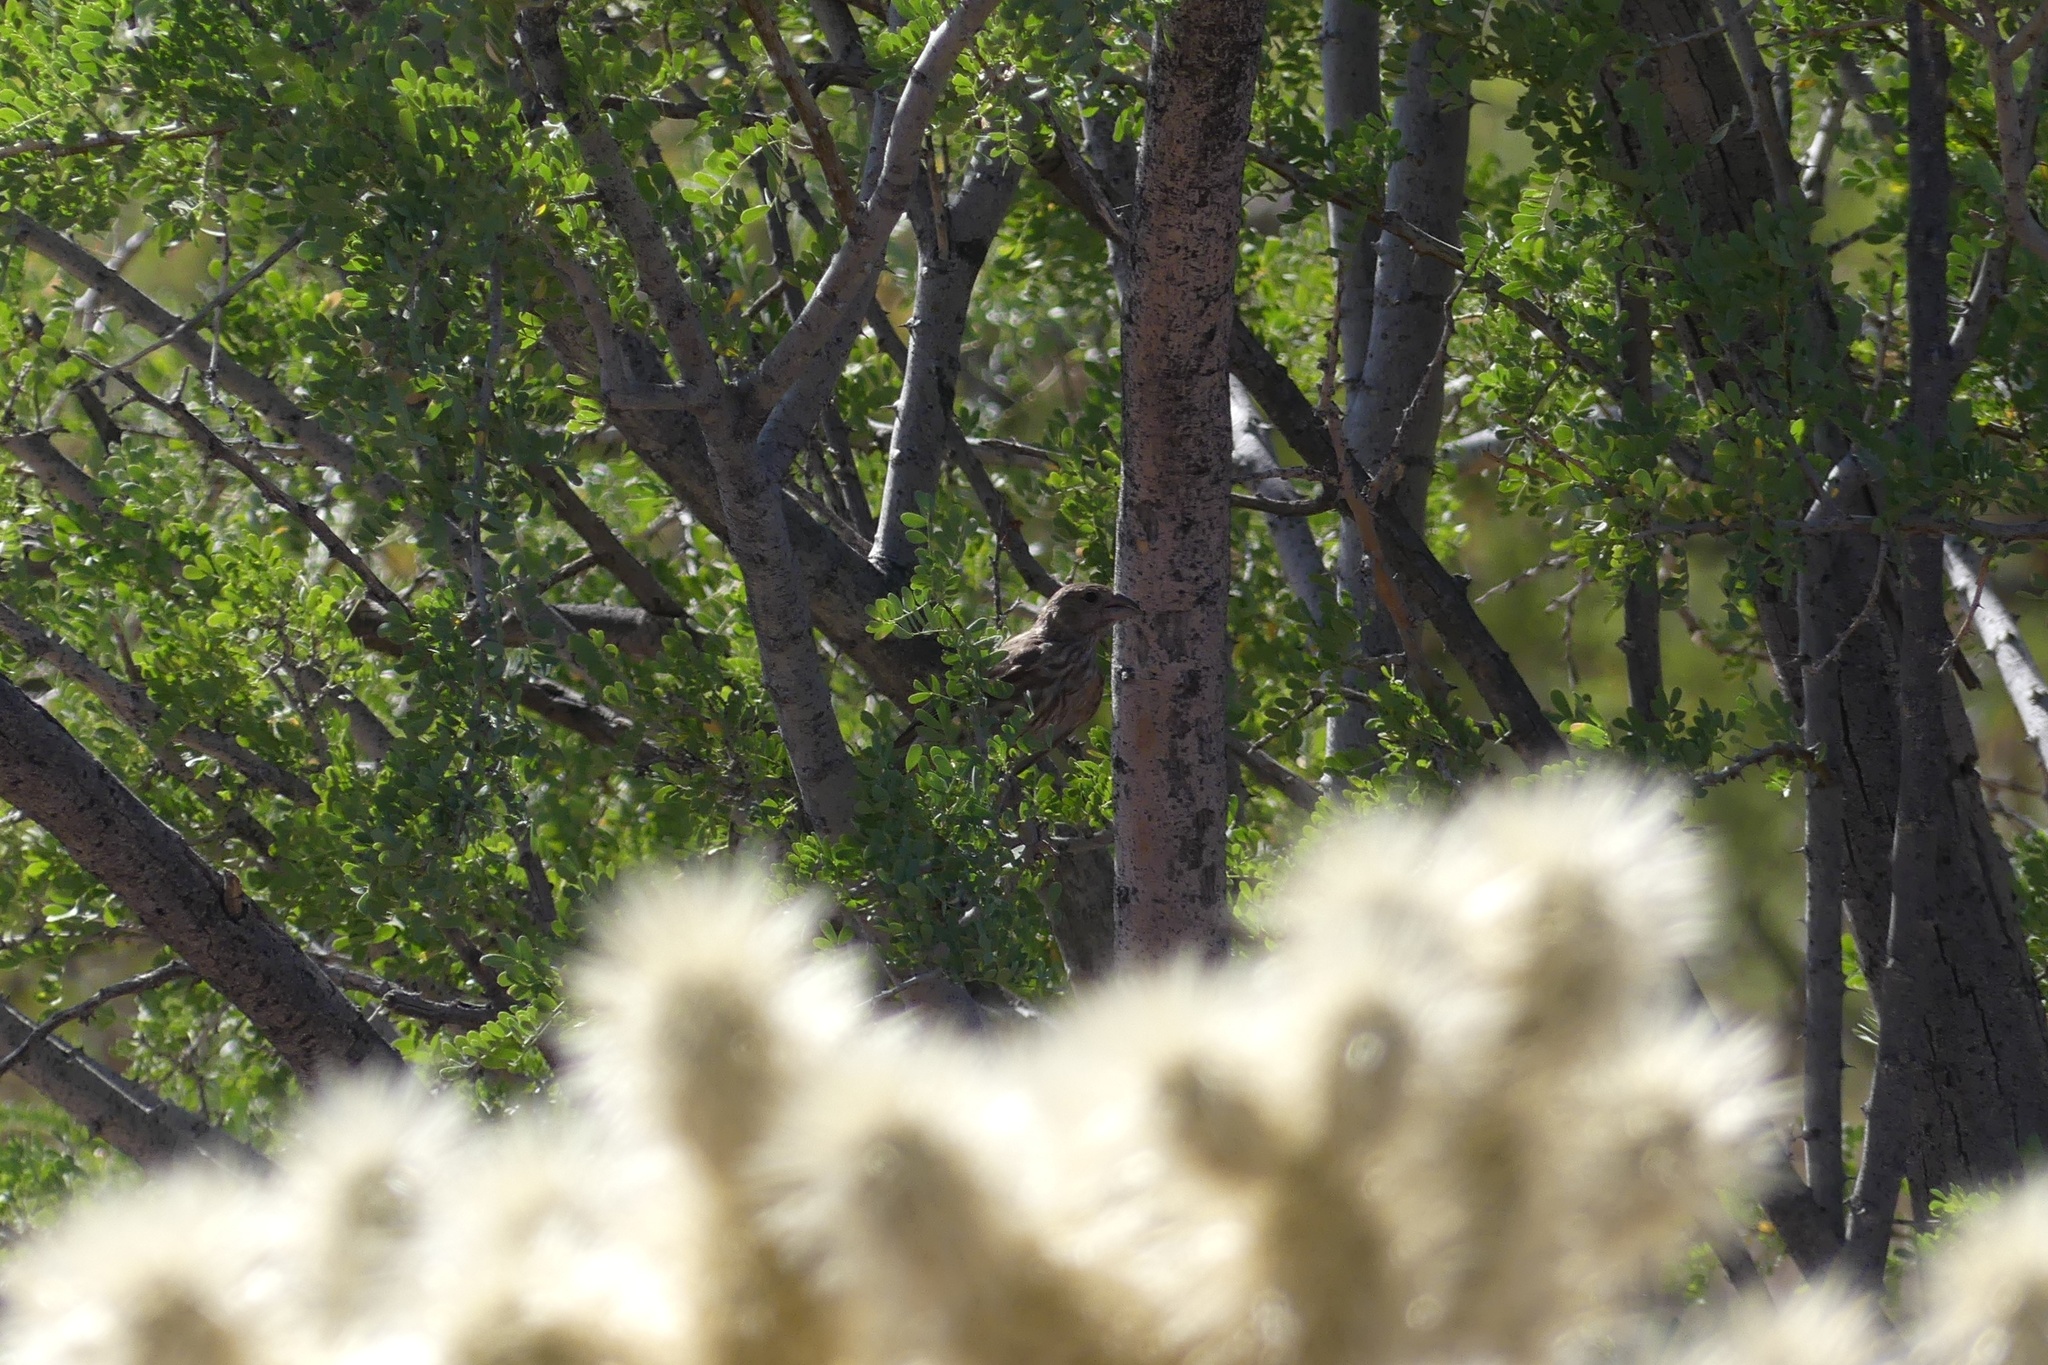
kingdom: Animalia
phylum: Chordata
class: Aves
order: Passeriformes
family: Fringillidae
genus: Haemorhous
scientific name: Haemorhous mexicanus
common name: House finch
